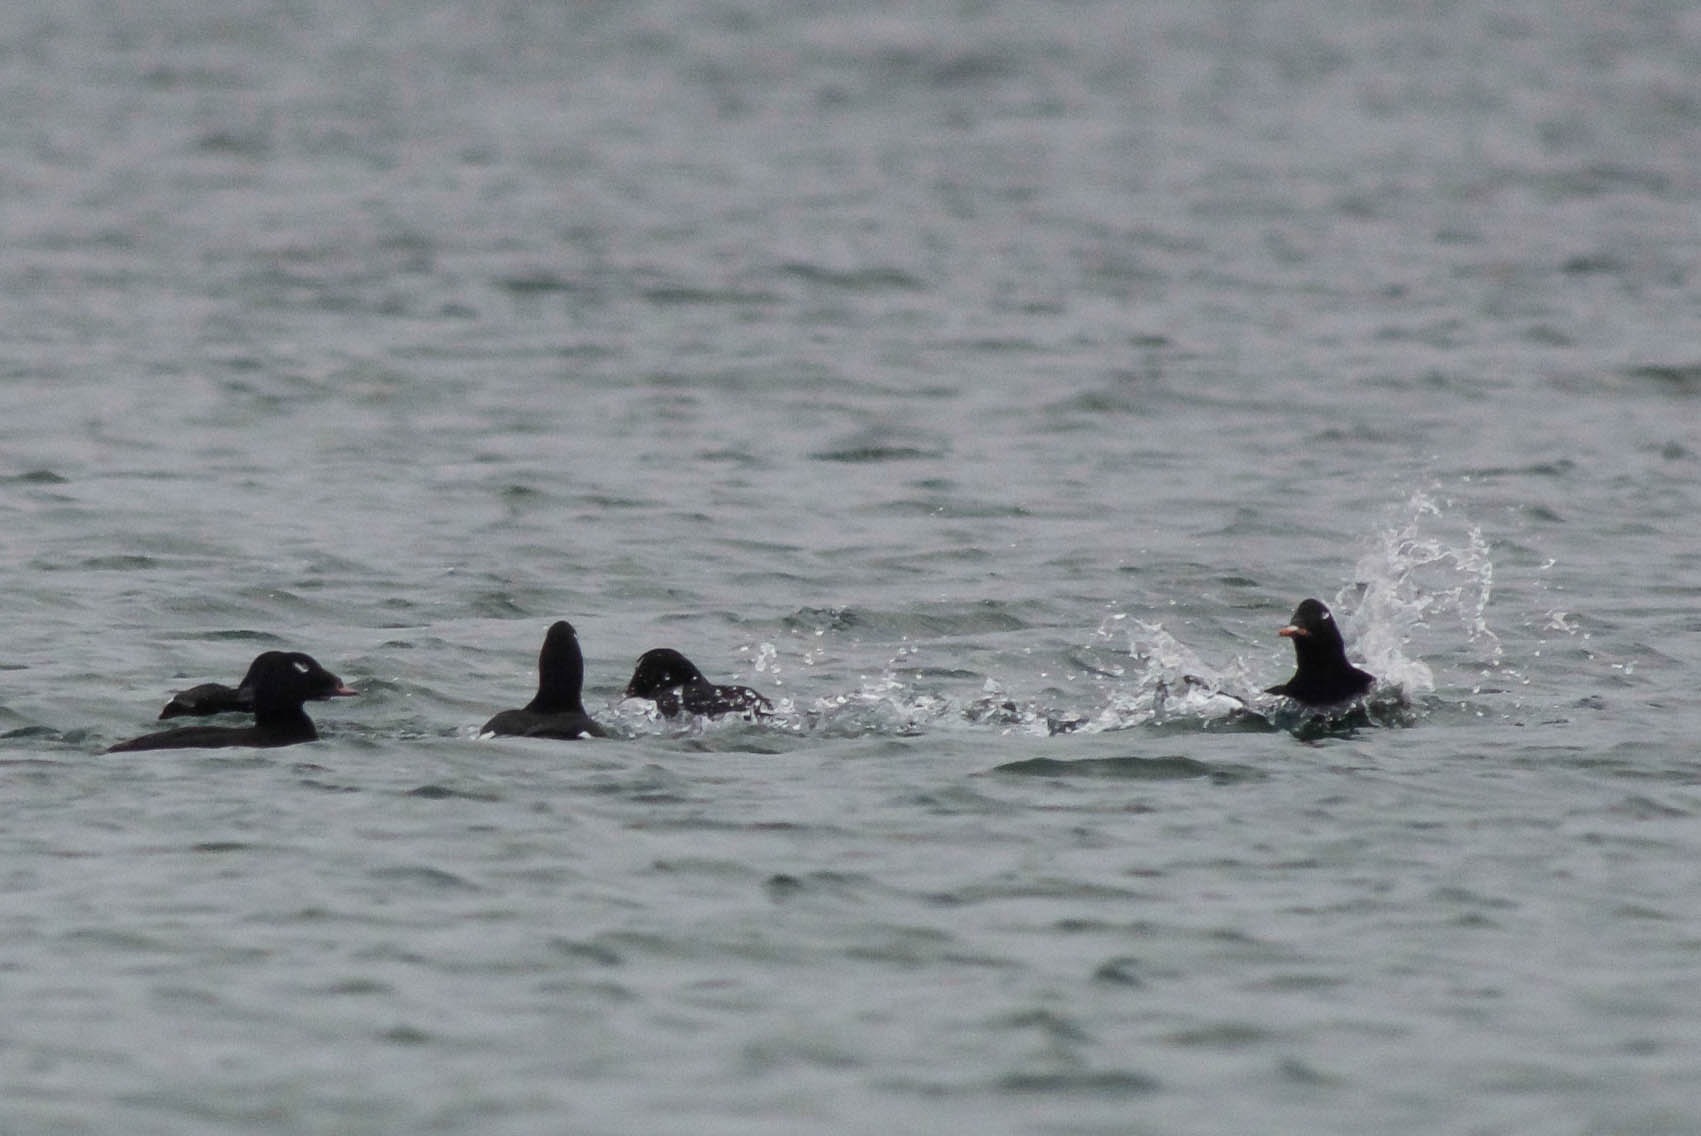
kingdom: Animalia
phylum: Chordata
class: Aves
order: Anseriformes
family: Anatidae
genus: Melanitta
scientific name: Melanitta deglandi
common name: White-winged scoter
